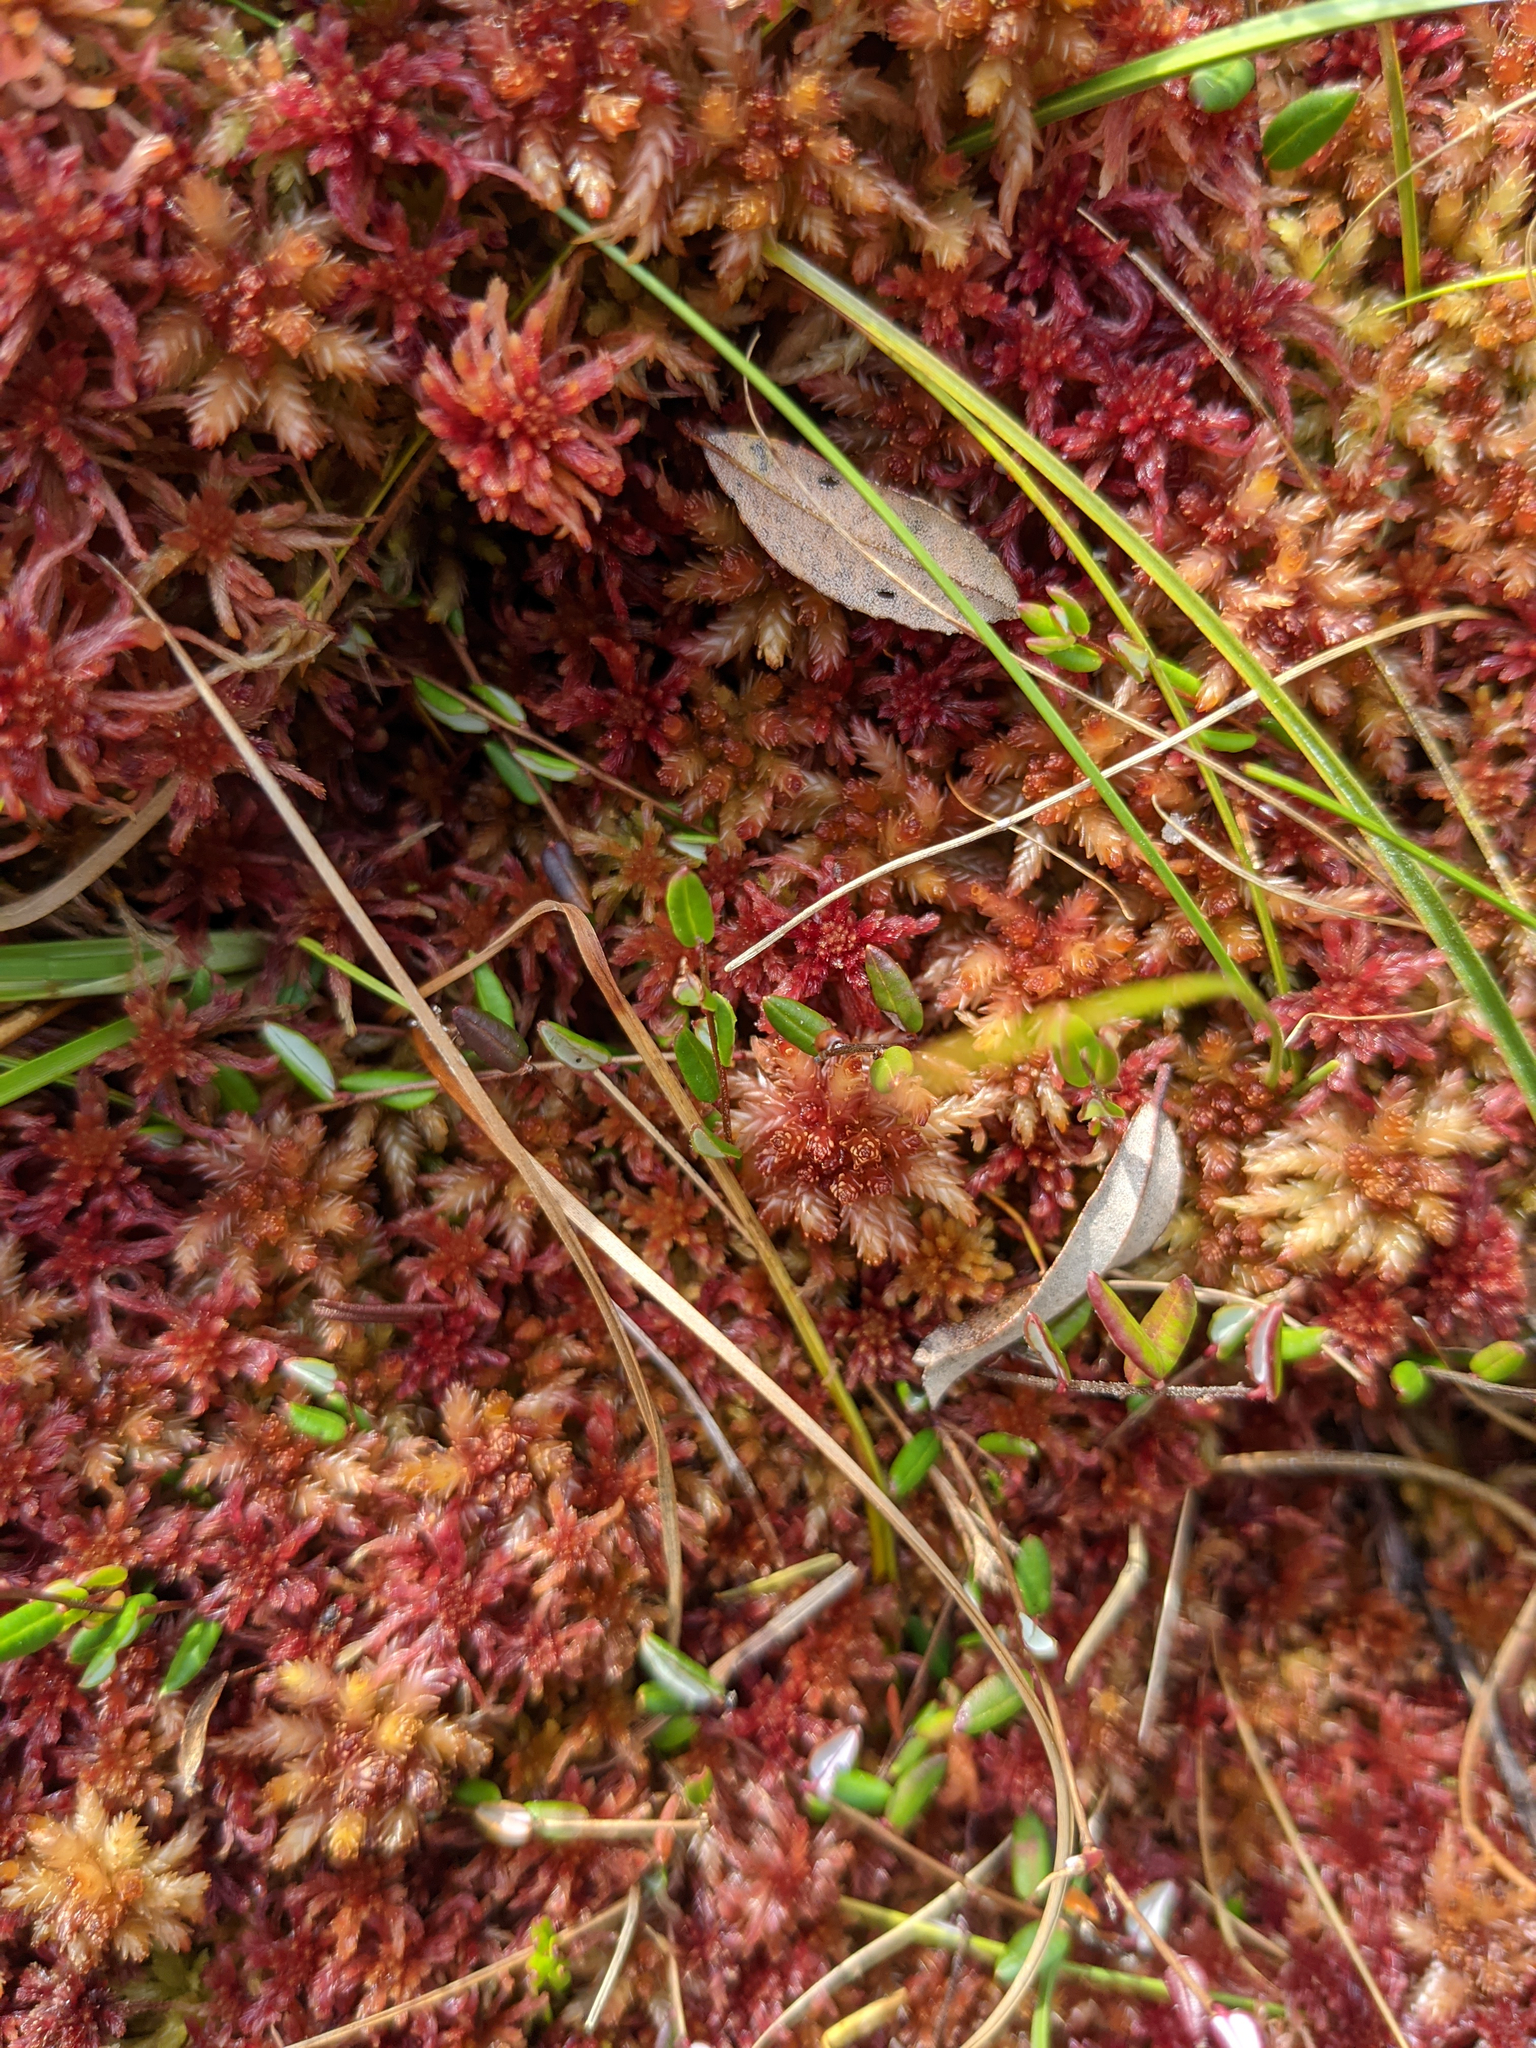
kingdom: Plantae
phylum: Tracheophyta
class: Magnoliopsida
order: Ericales
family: Ericaceae
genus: Vaccinium
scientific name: Vaccinium oxycoccos
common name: Cranberry
